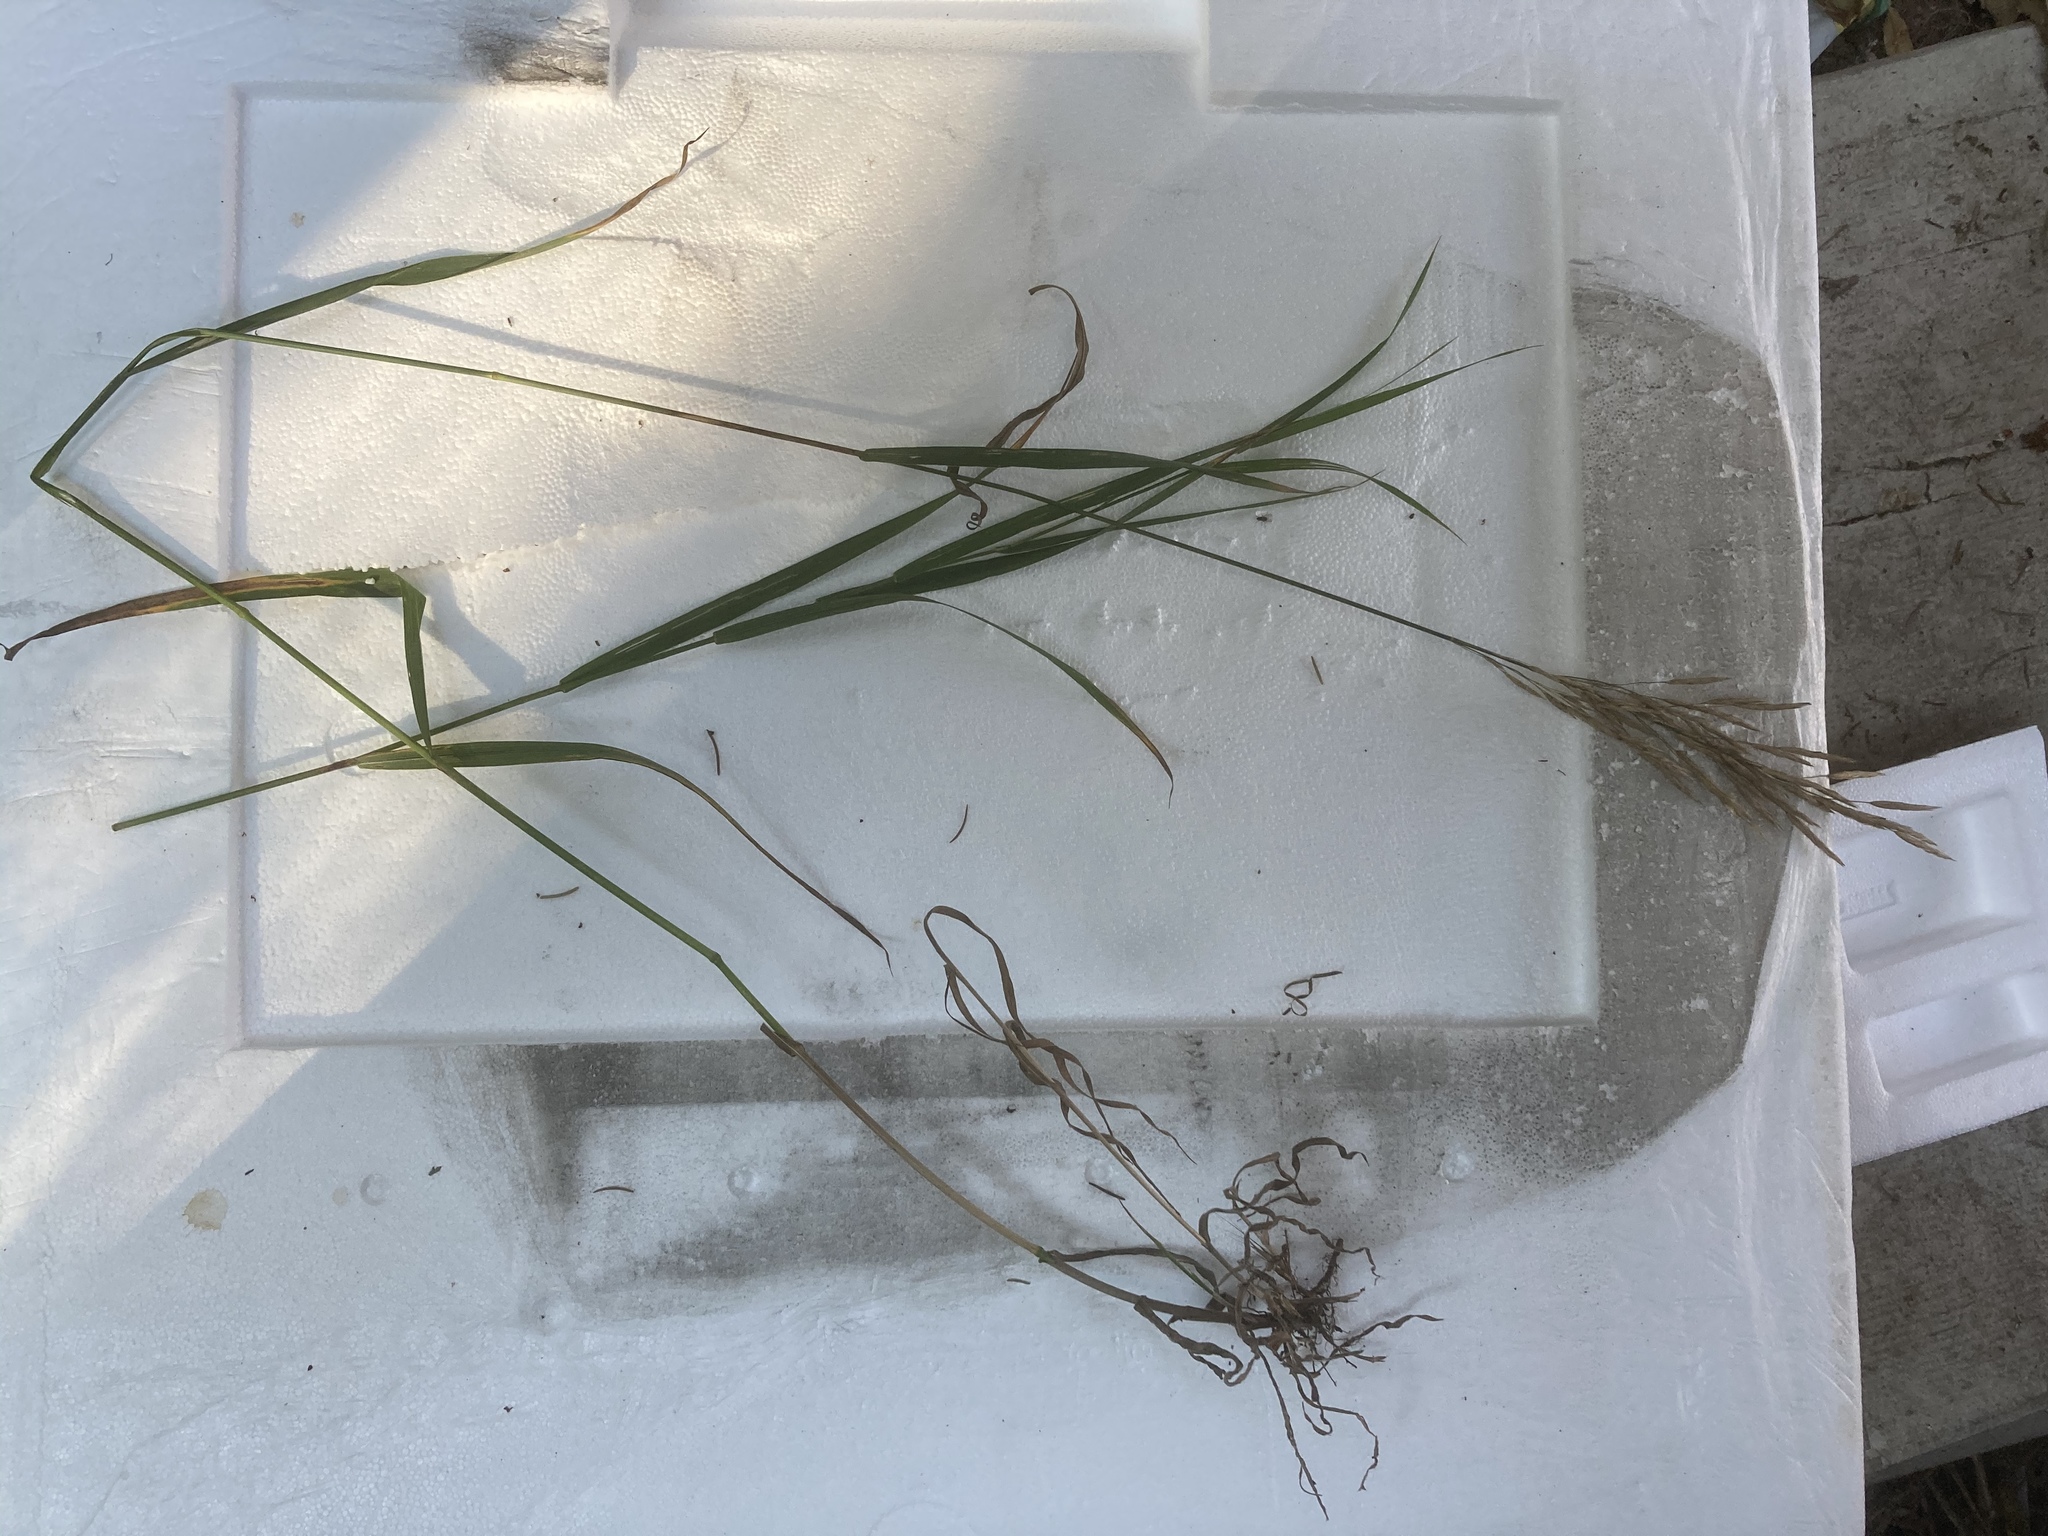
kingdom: Plantae
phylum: Tracheophyta
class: Liliopsida
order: Poales
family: Poaceae
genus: Bromus
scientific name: Bromus inermis
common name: Smooth brome
